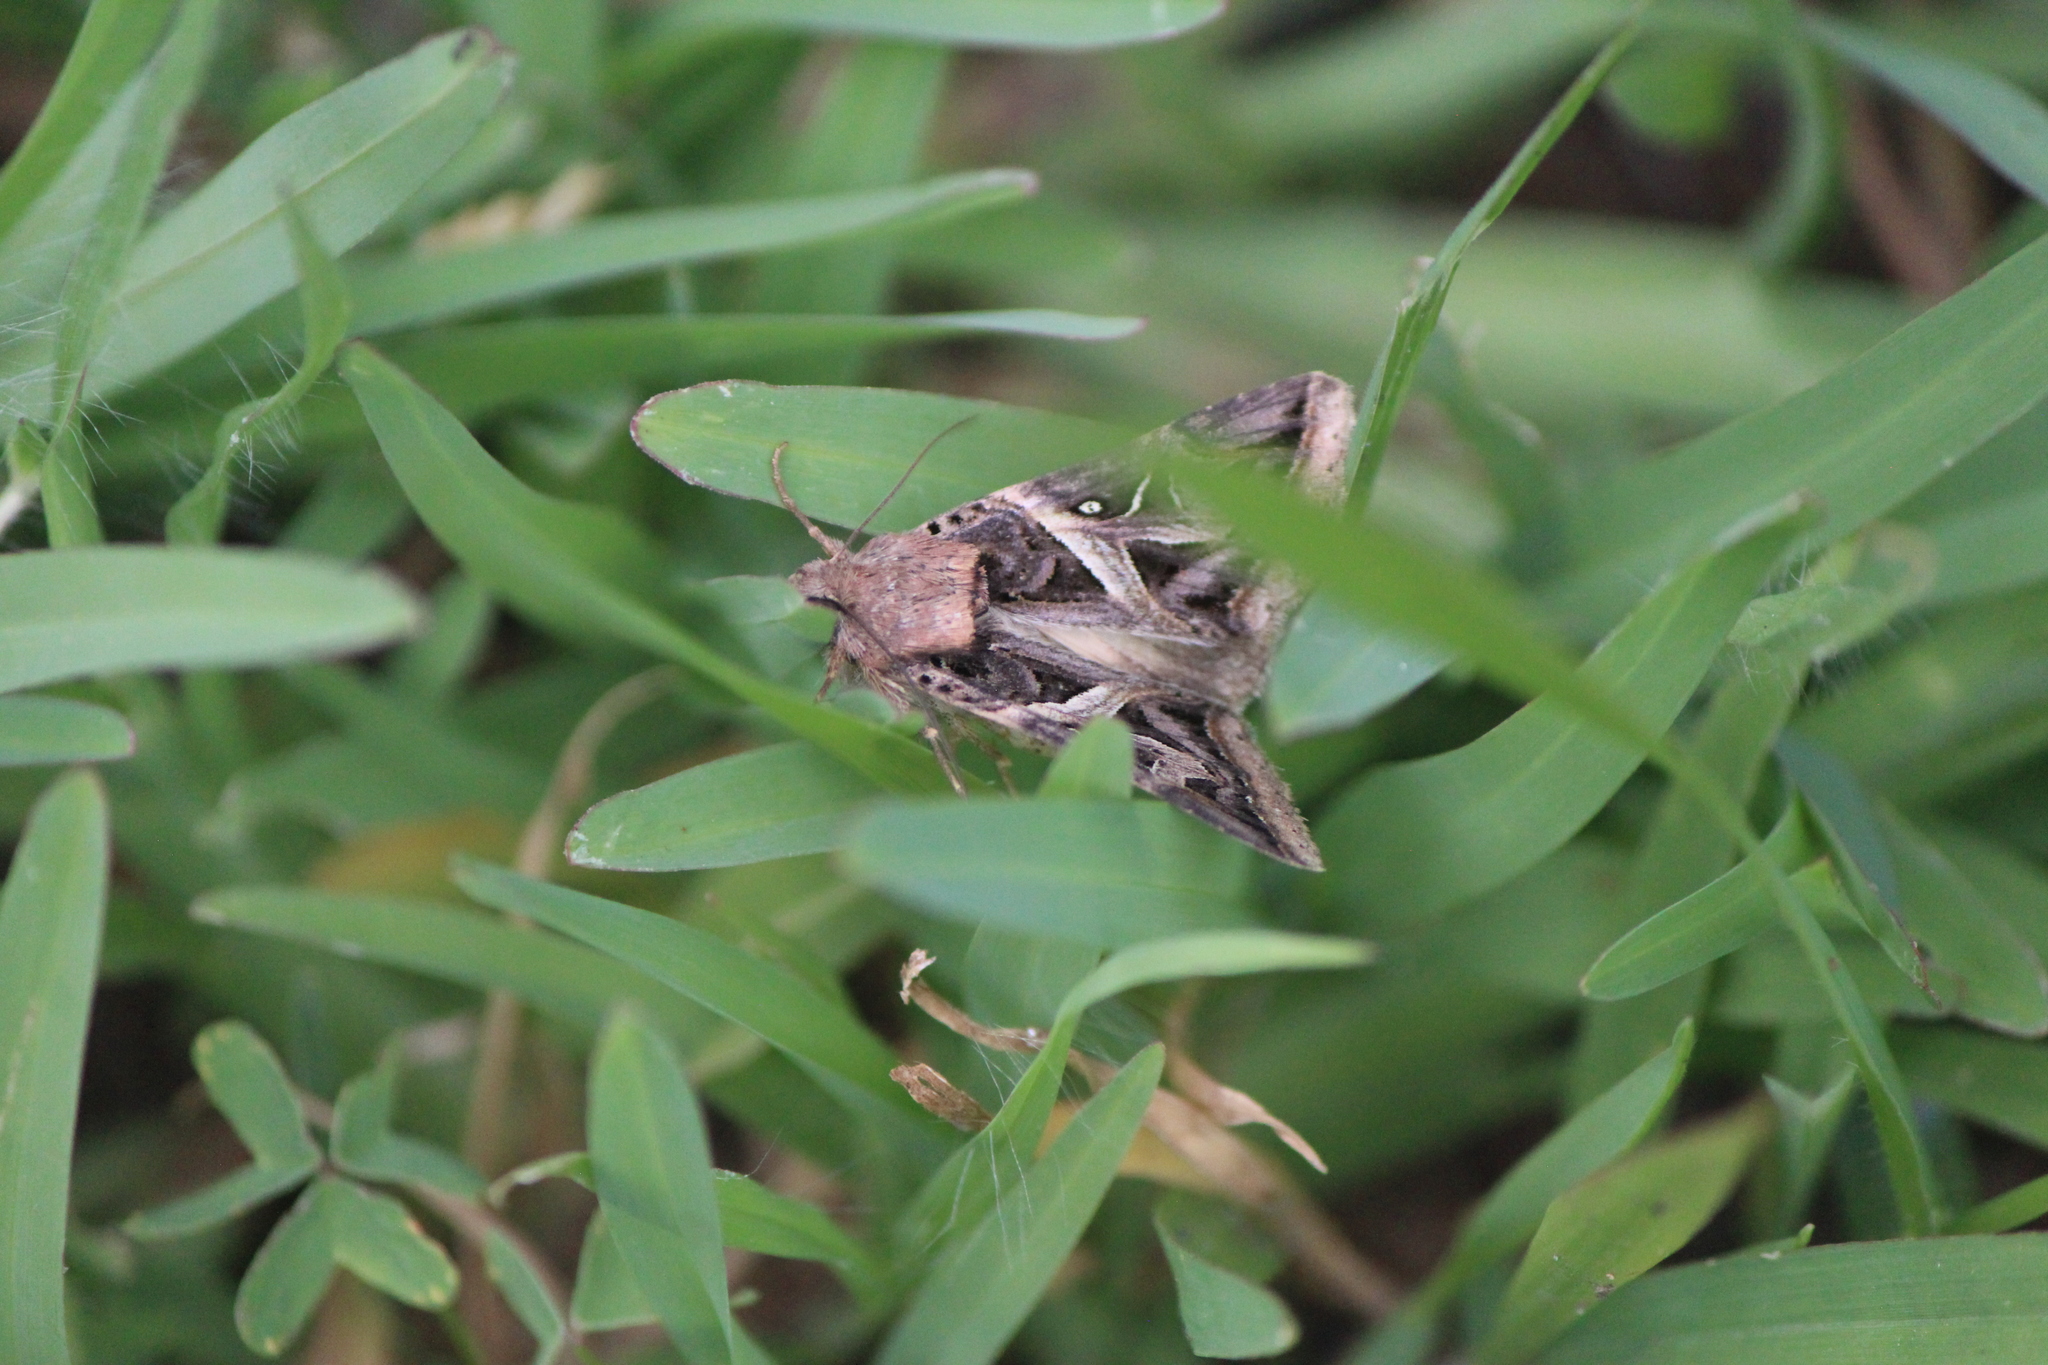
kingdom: Animalia
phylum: Arthropoda
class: Insecta
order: Lepidoptera
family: Erebidae
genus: Ianius
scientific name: Ianius mosca
